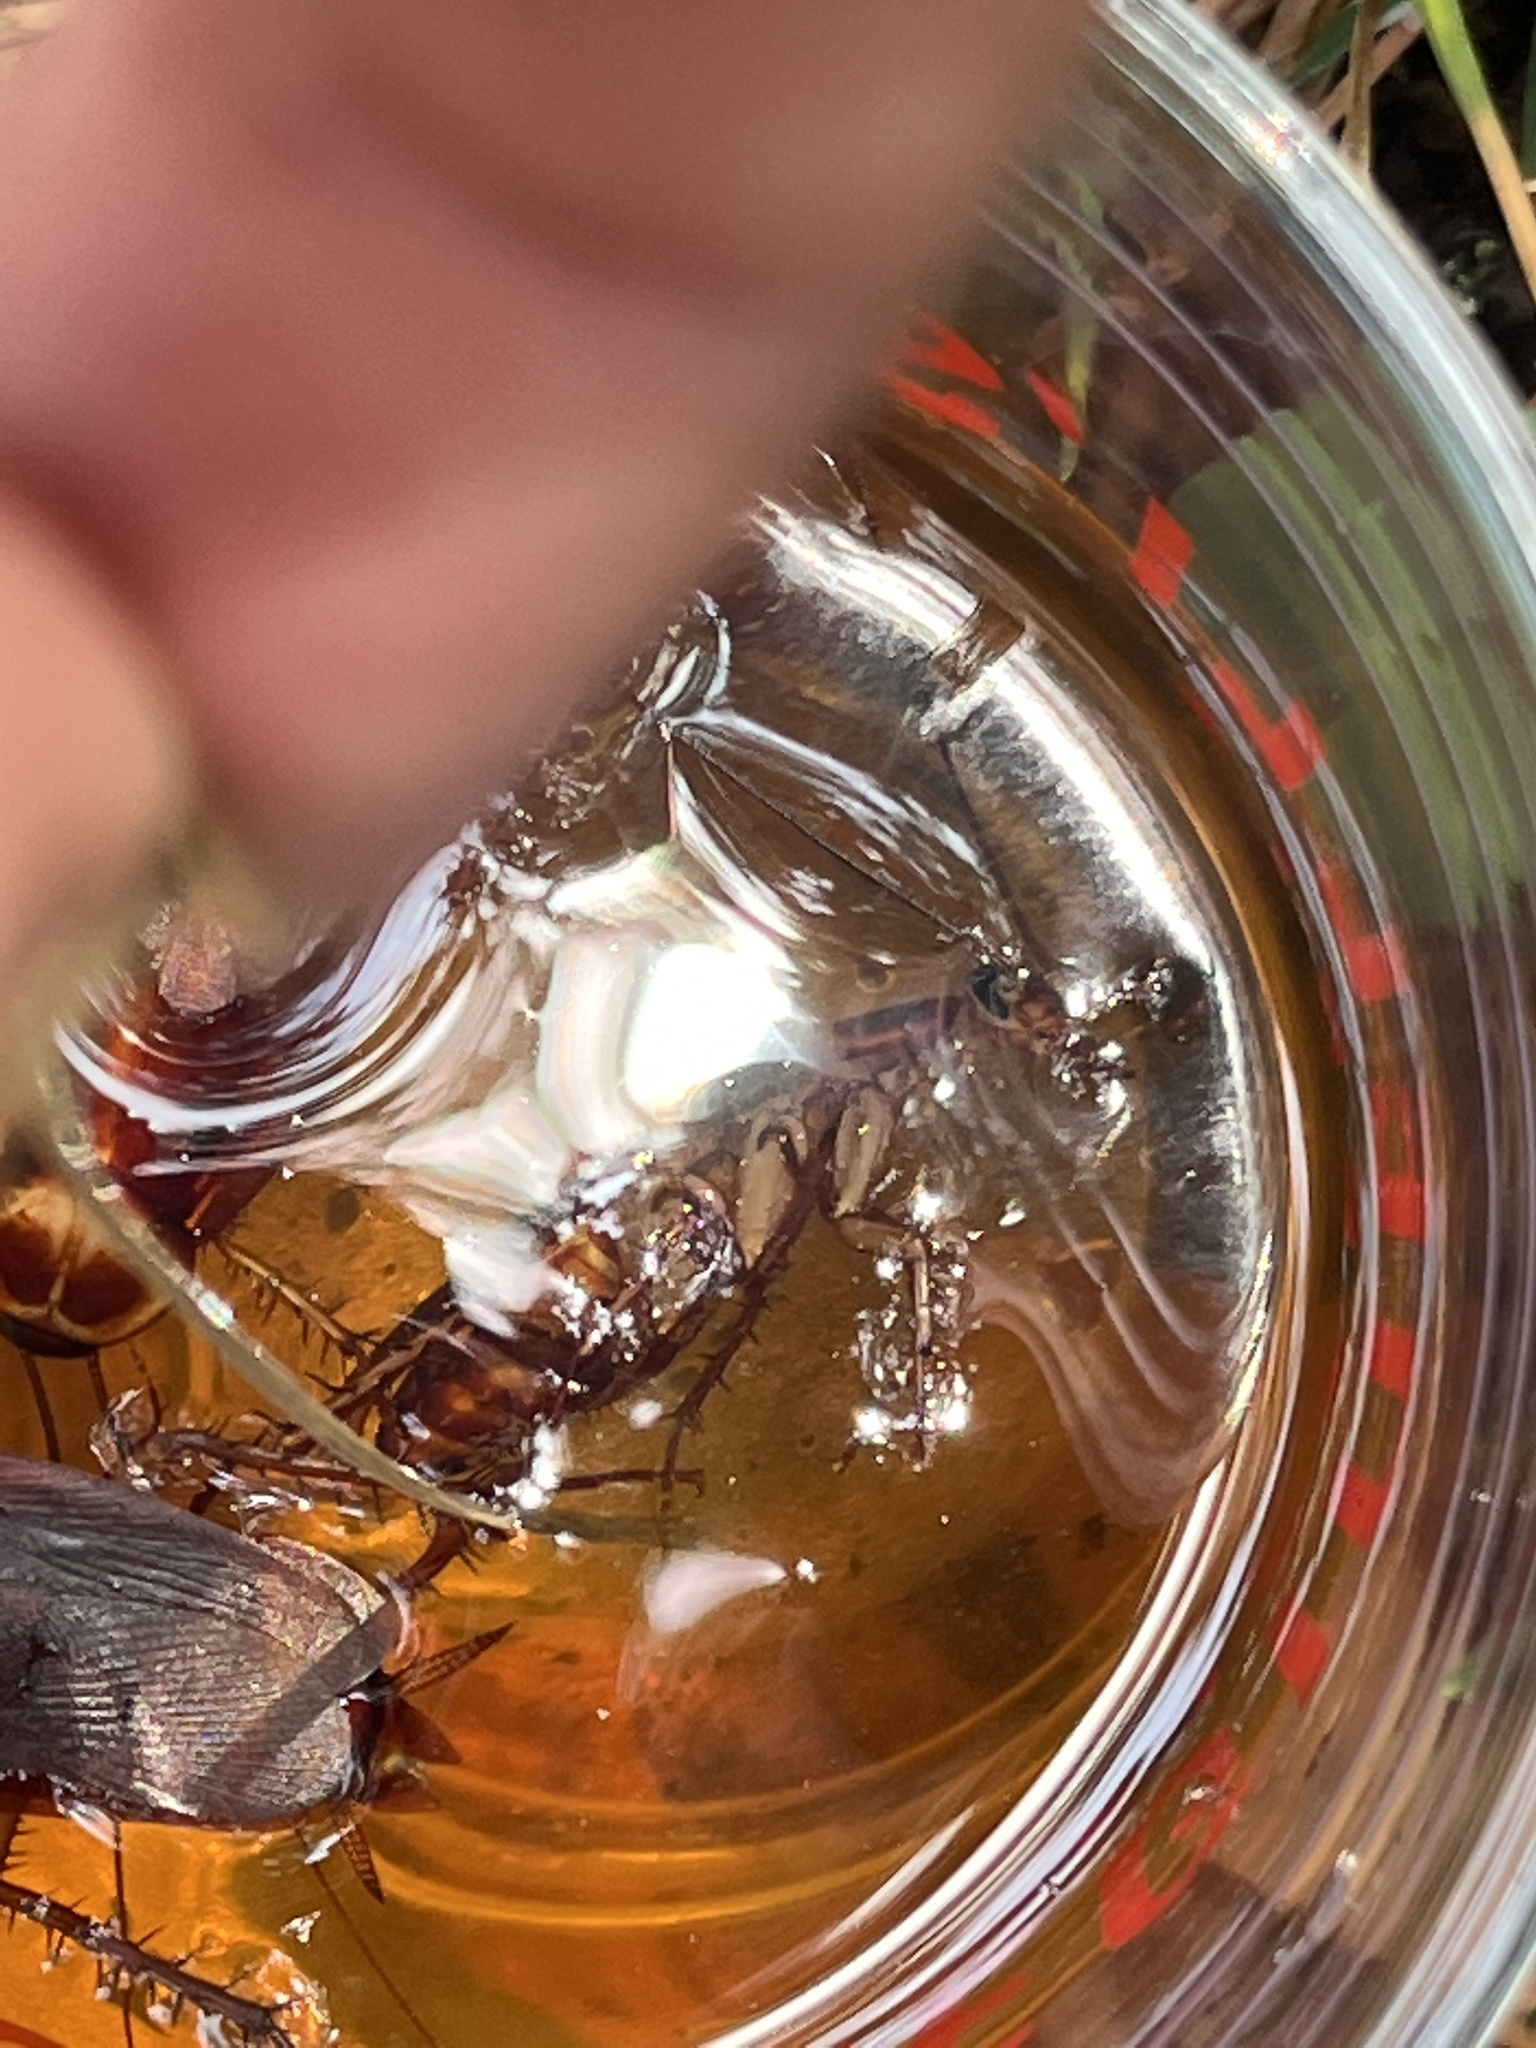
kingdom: Animalia
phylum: Arthropoda
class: Insecta
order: Blattodea
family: Blattidae
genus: Periplaneta
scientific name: Periplaneta americana
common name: American cockroach
